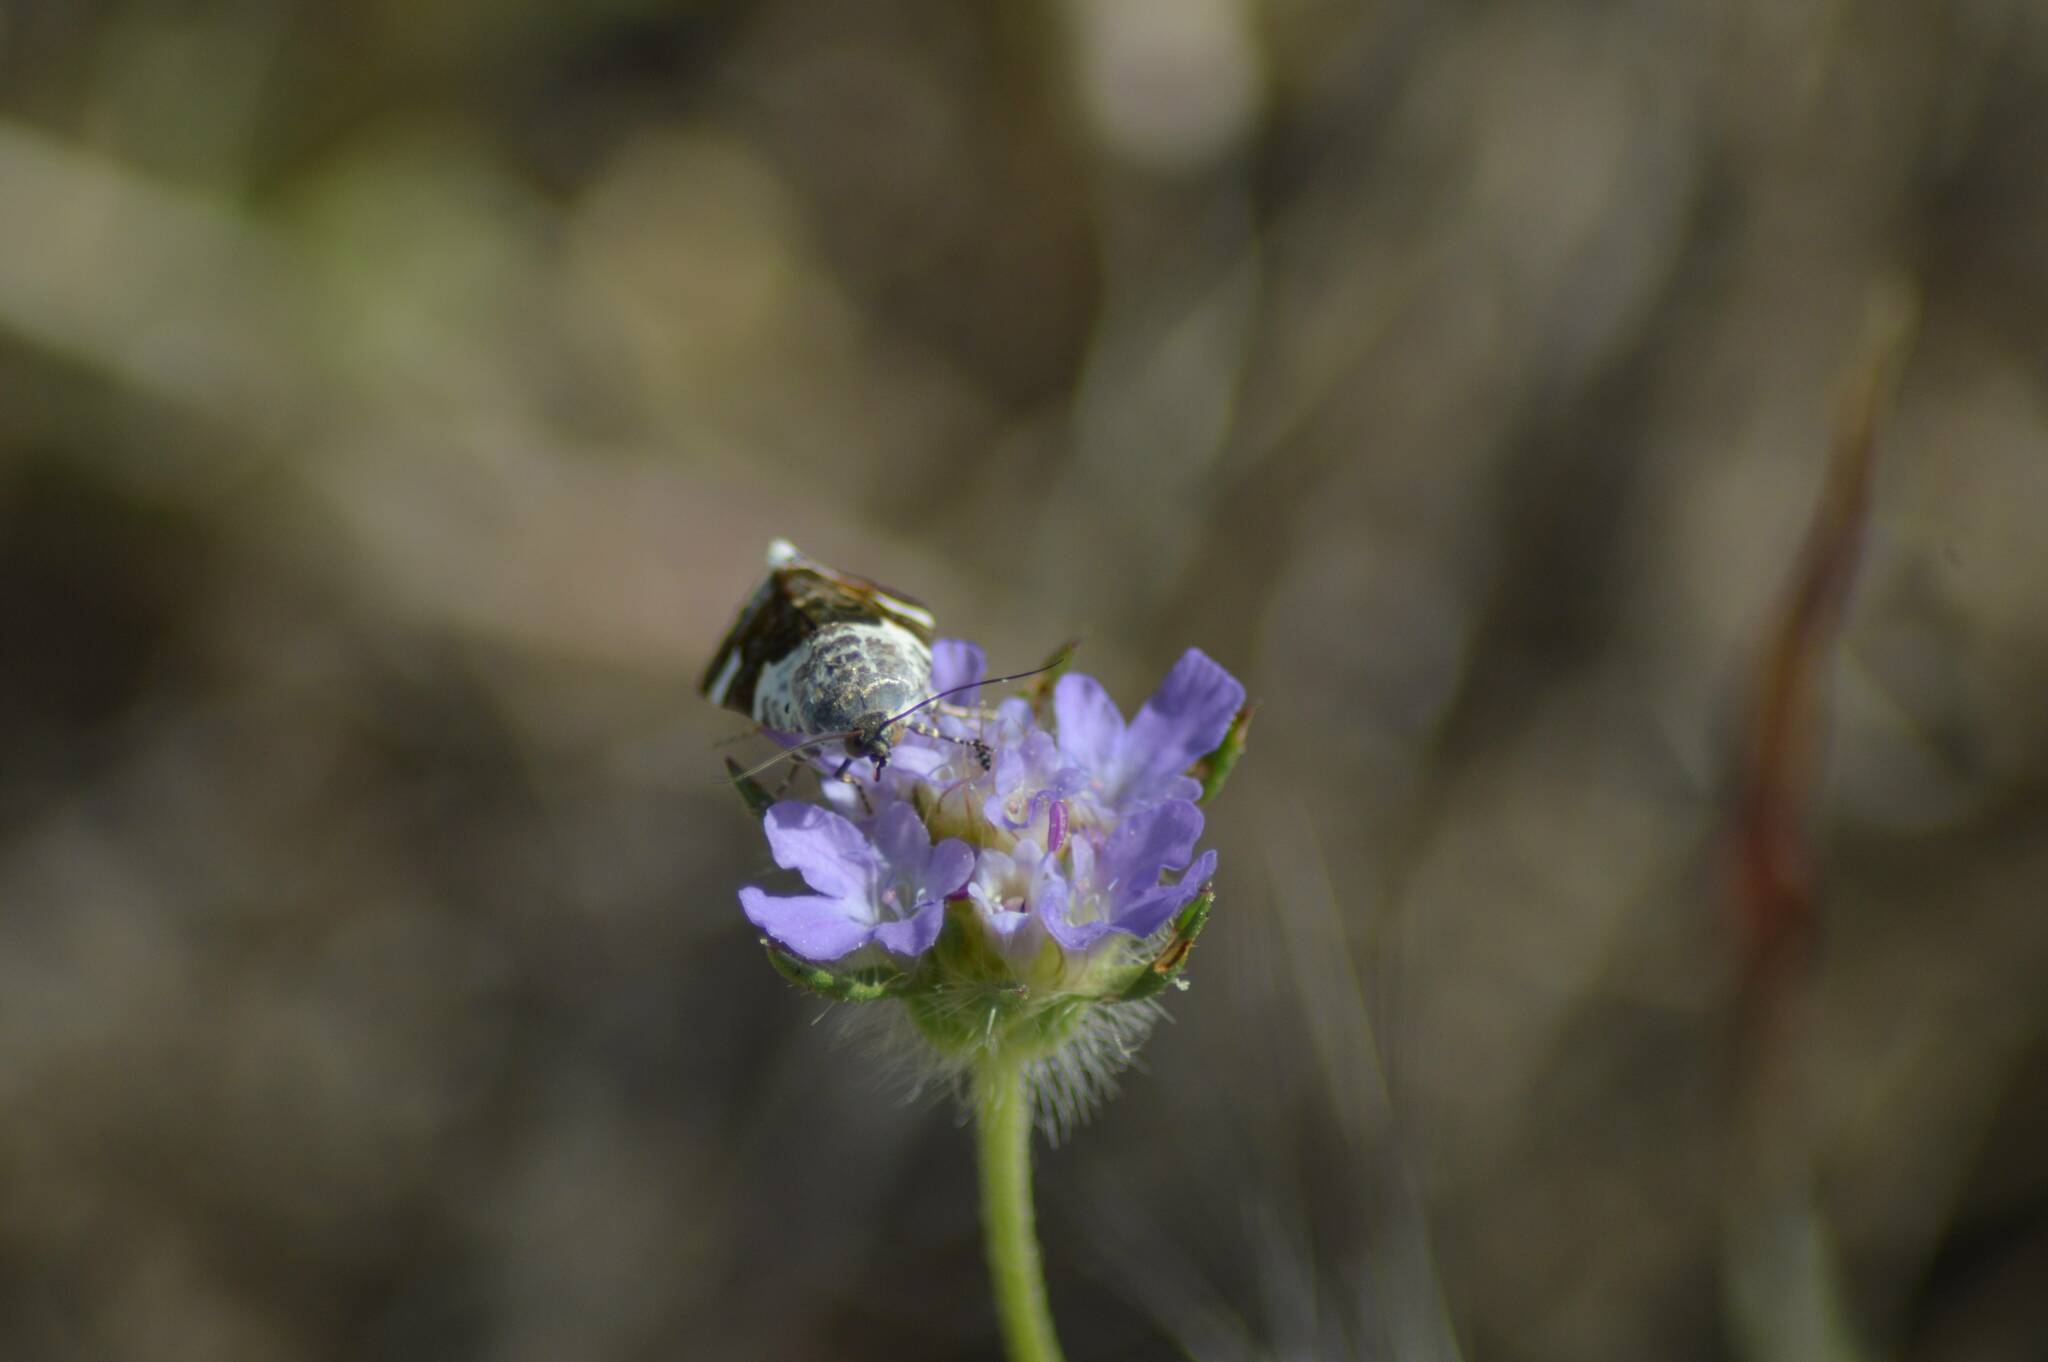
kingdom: Animalia
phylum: Arthropoda
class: Insecta
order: Lepidoptera
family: Noctuidae
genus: Acontia
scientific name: Acontia lucida
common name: Pale shoulder
